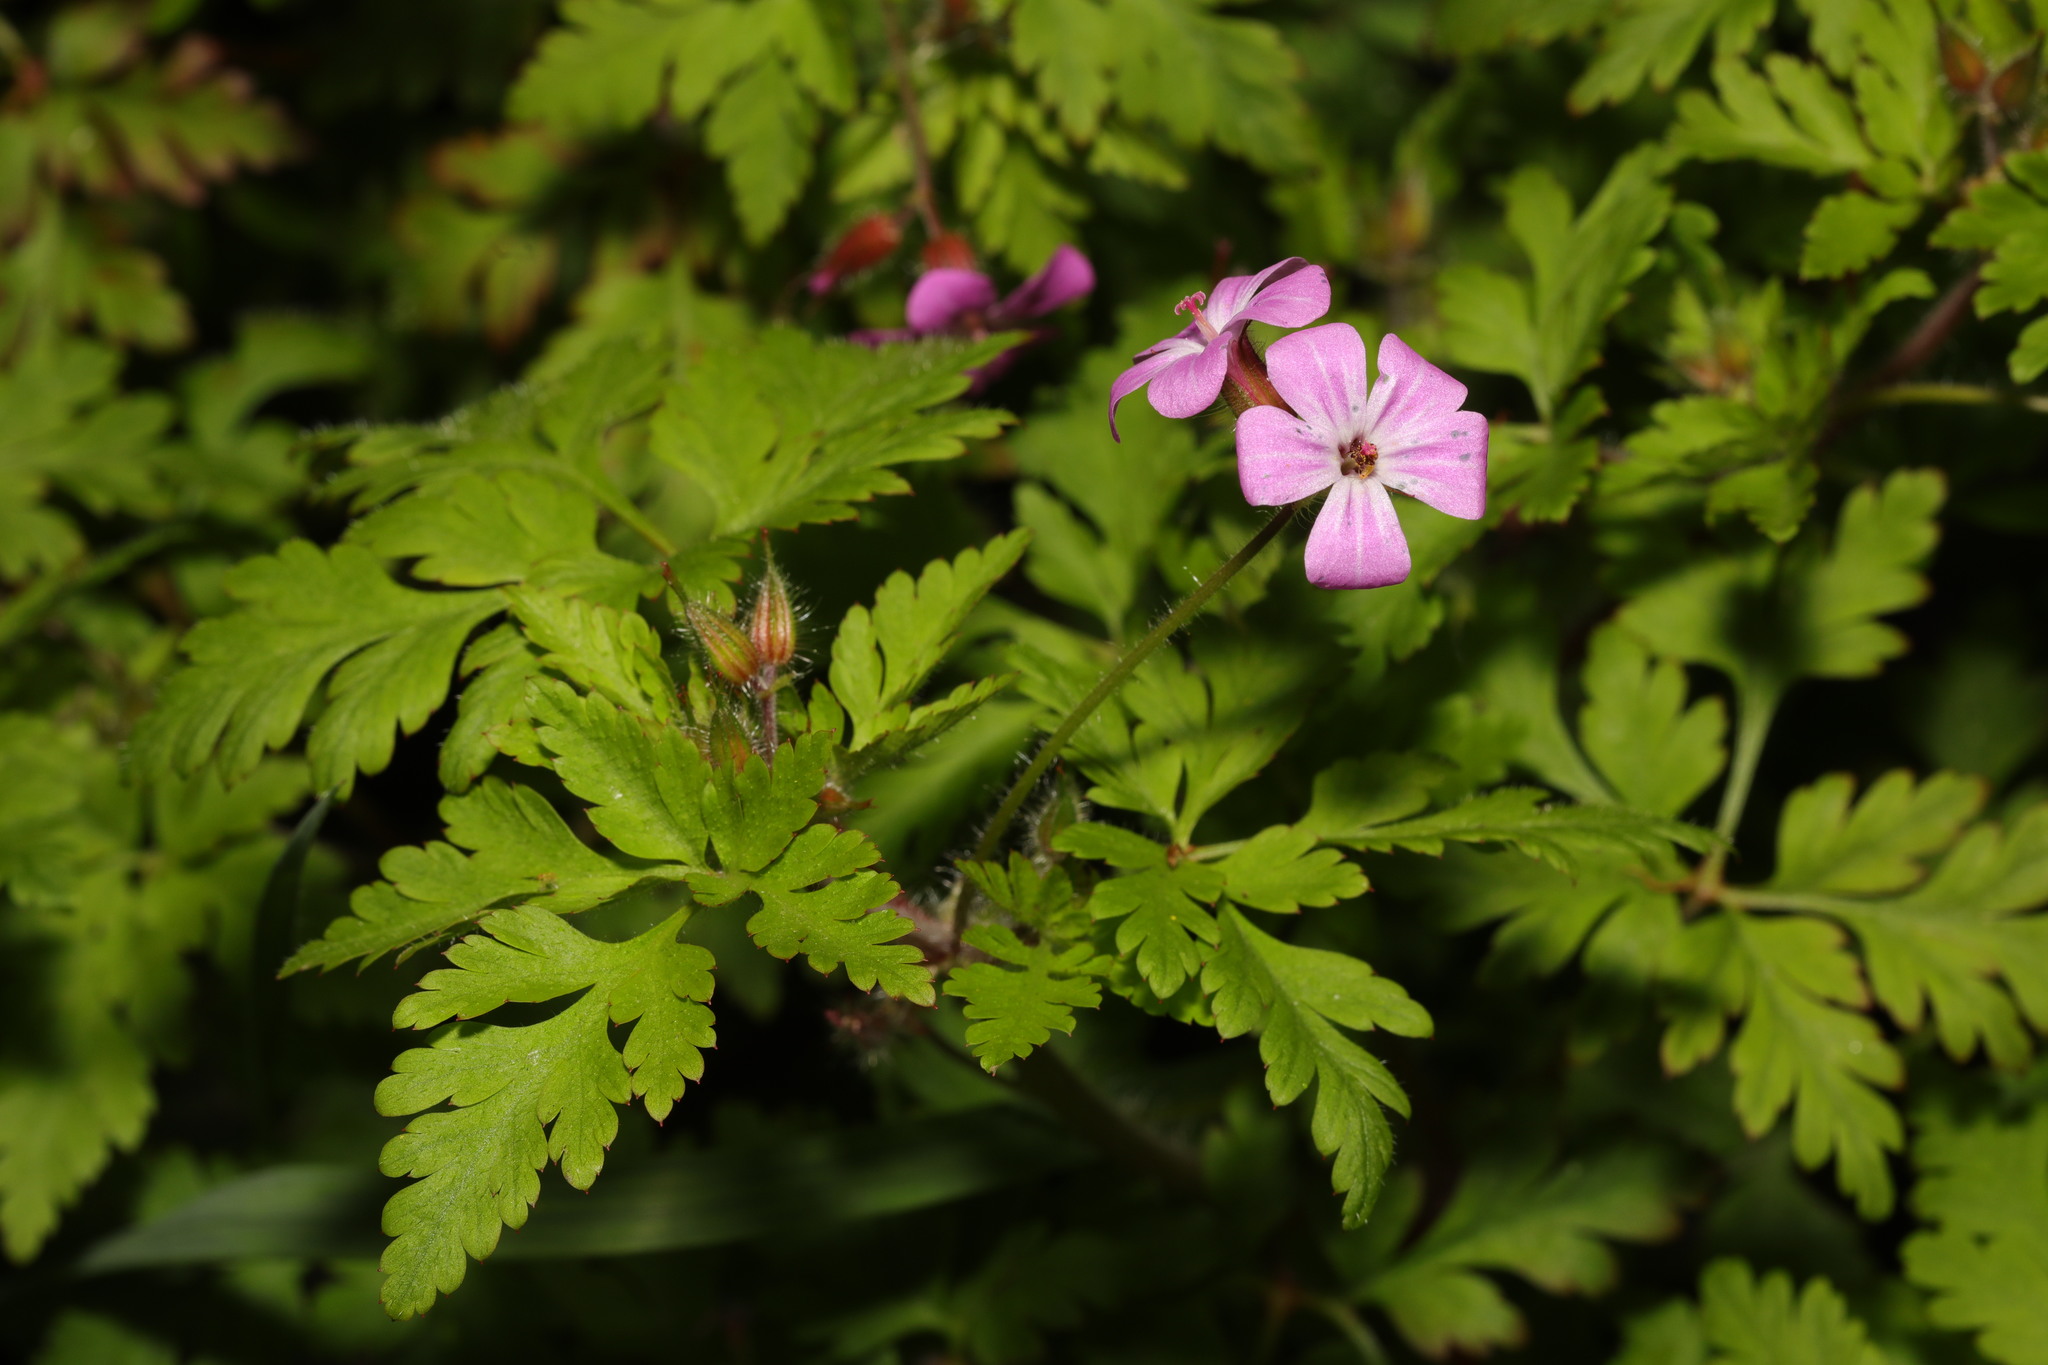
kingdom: Plantae
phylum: Tracheophyta
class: Magnoliopsida
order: Geraniales
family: Geraniaceae
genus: Geranium
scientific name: Geranium robertianum
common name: Herb-robert
